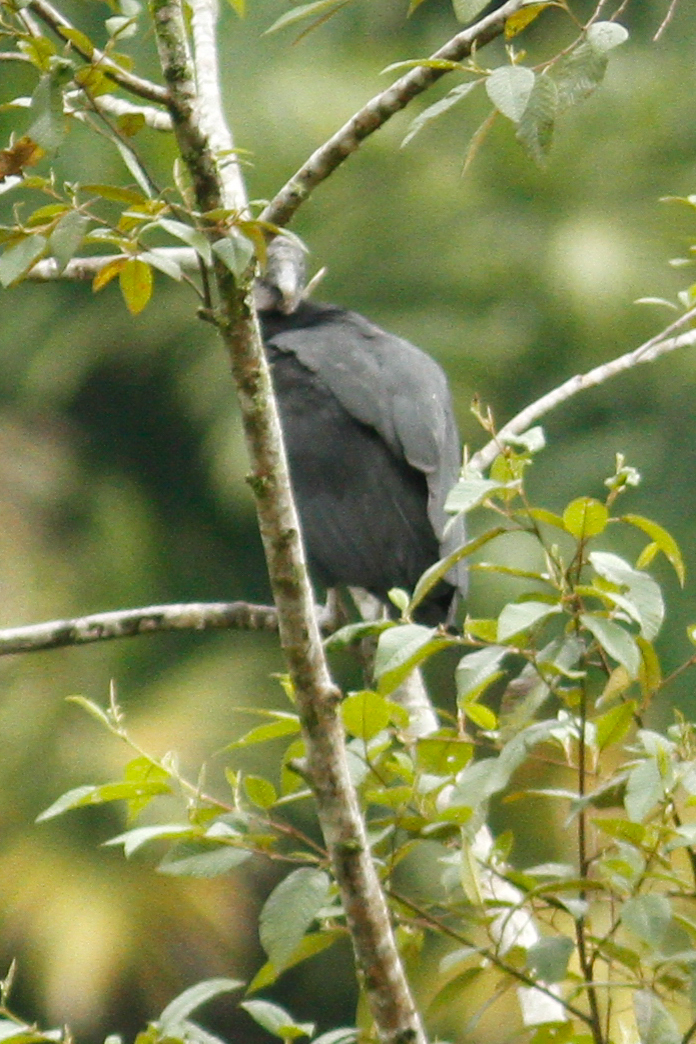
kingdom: Animalia
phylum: Chordata
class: Aves
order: Accipitriformes
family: Cathartidae
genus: Coragyps
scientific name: Coragyps atratus
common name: Black vulture
